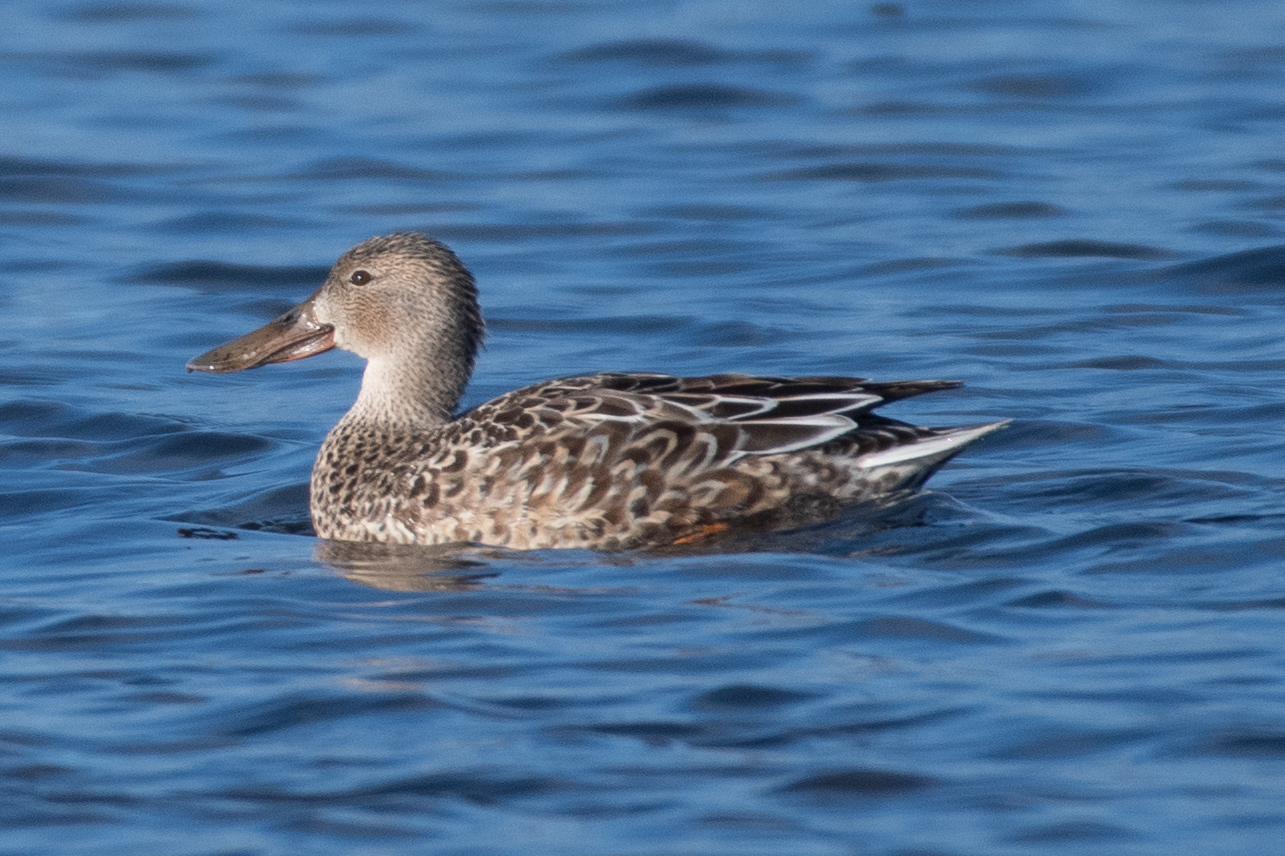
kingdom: Animalia
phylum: Chordata
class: Aves
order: Anseriformes
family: Anatidae
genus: Spatula
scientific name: Spatula clypeata
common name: Northern shoveler
